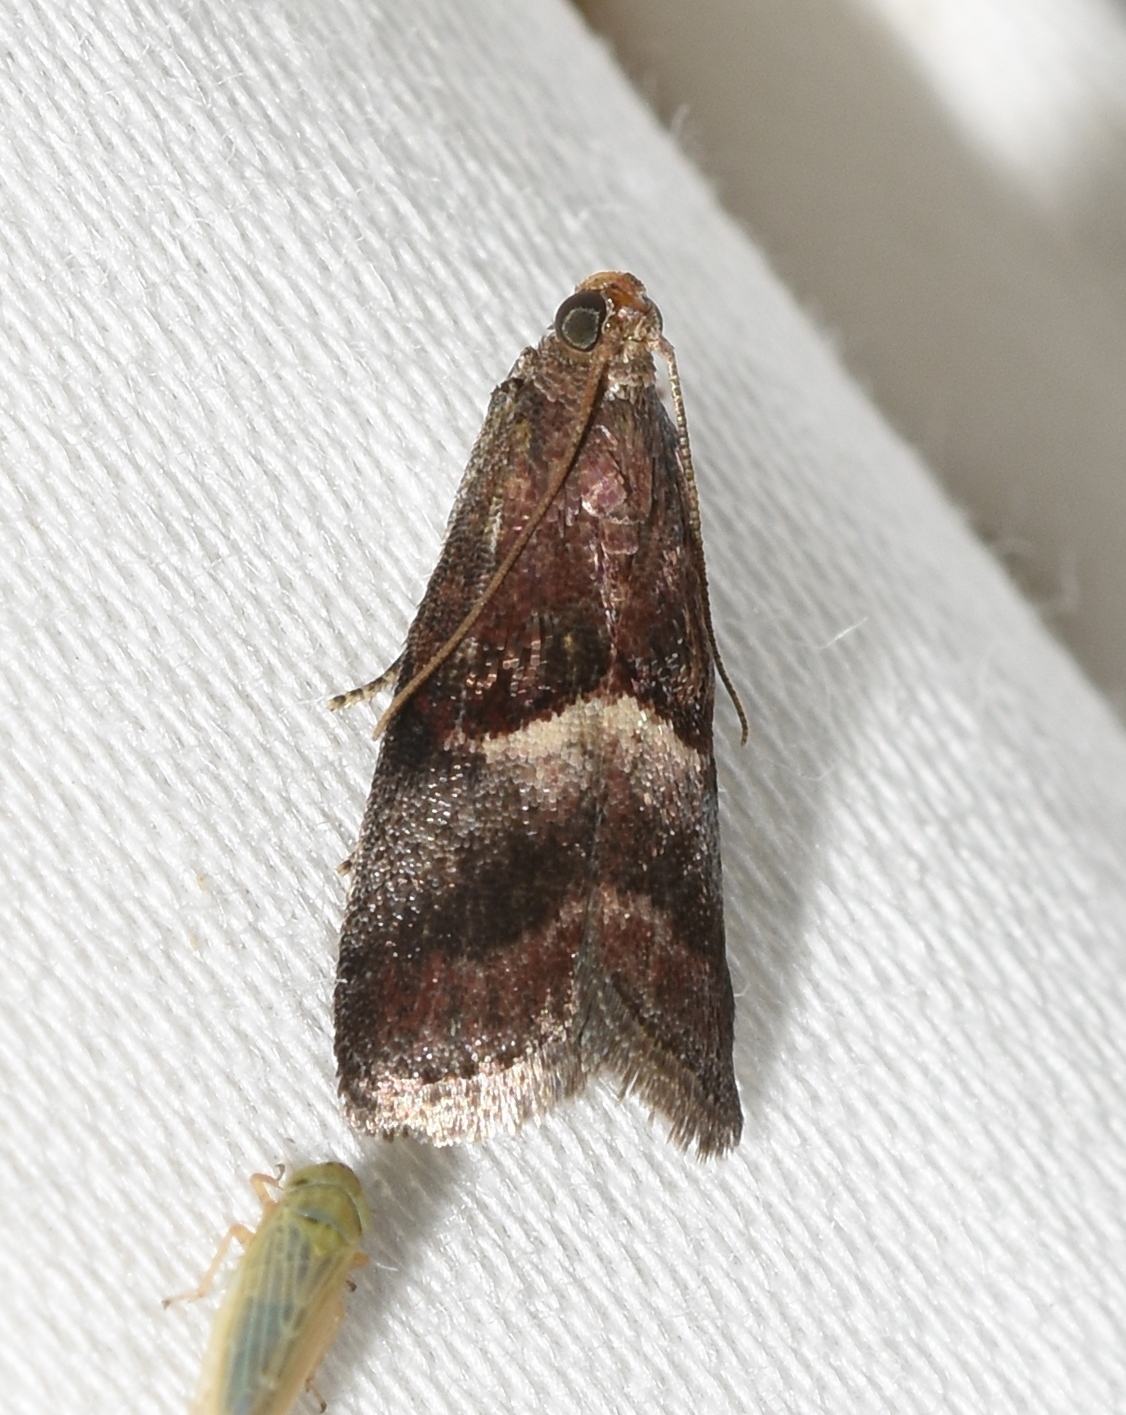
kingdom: Animalia
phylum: Arthropoda
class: Insecta
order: Lepidoptera
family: Pyralidae
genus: Acrobasis
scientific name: Acrobasis exsulella
